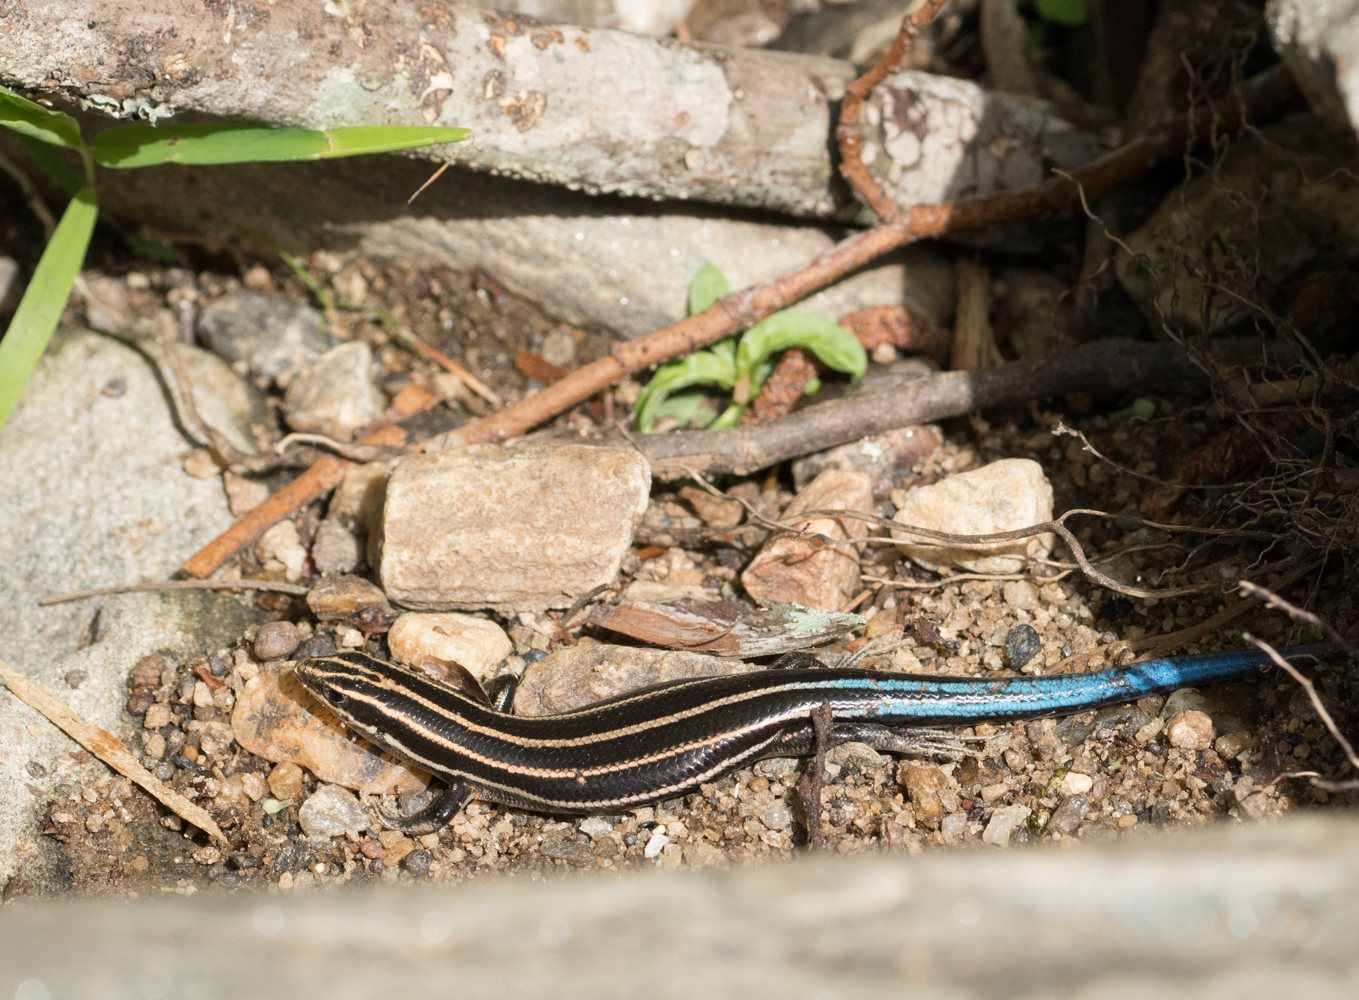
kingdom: Animalia
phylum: Chordata
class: Squamata
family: Scincidae
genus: Plestiodon
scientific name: Plestiodon fasciatus
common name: Five-lined skink
